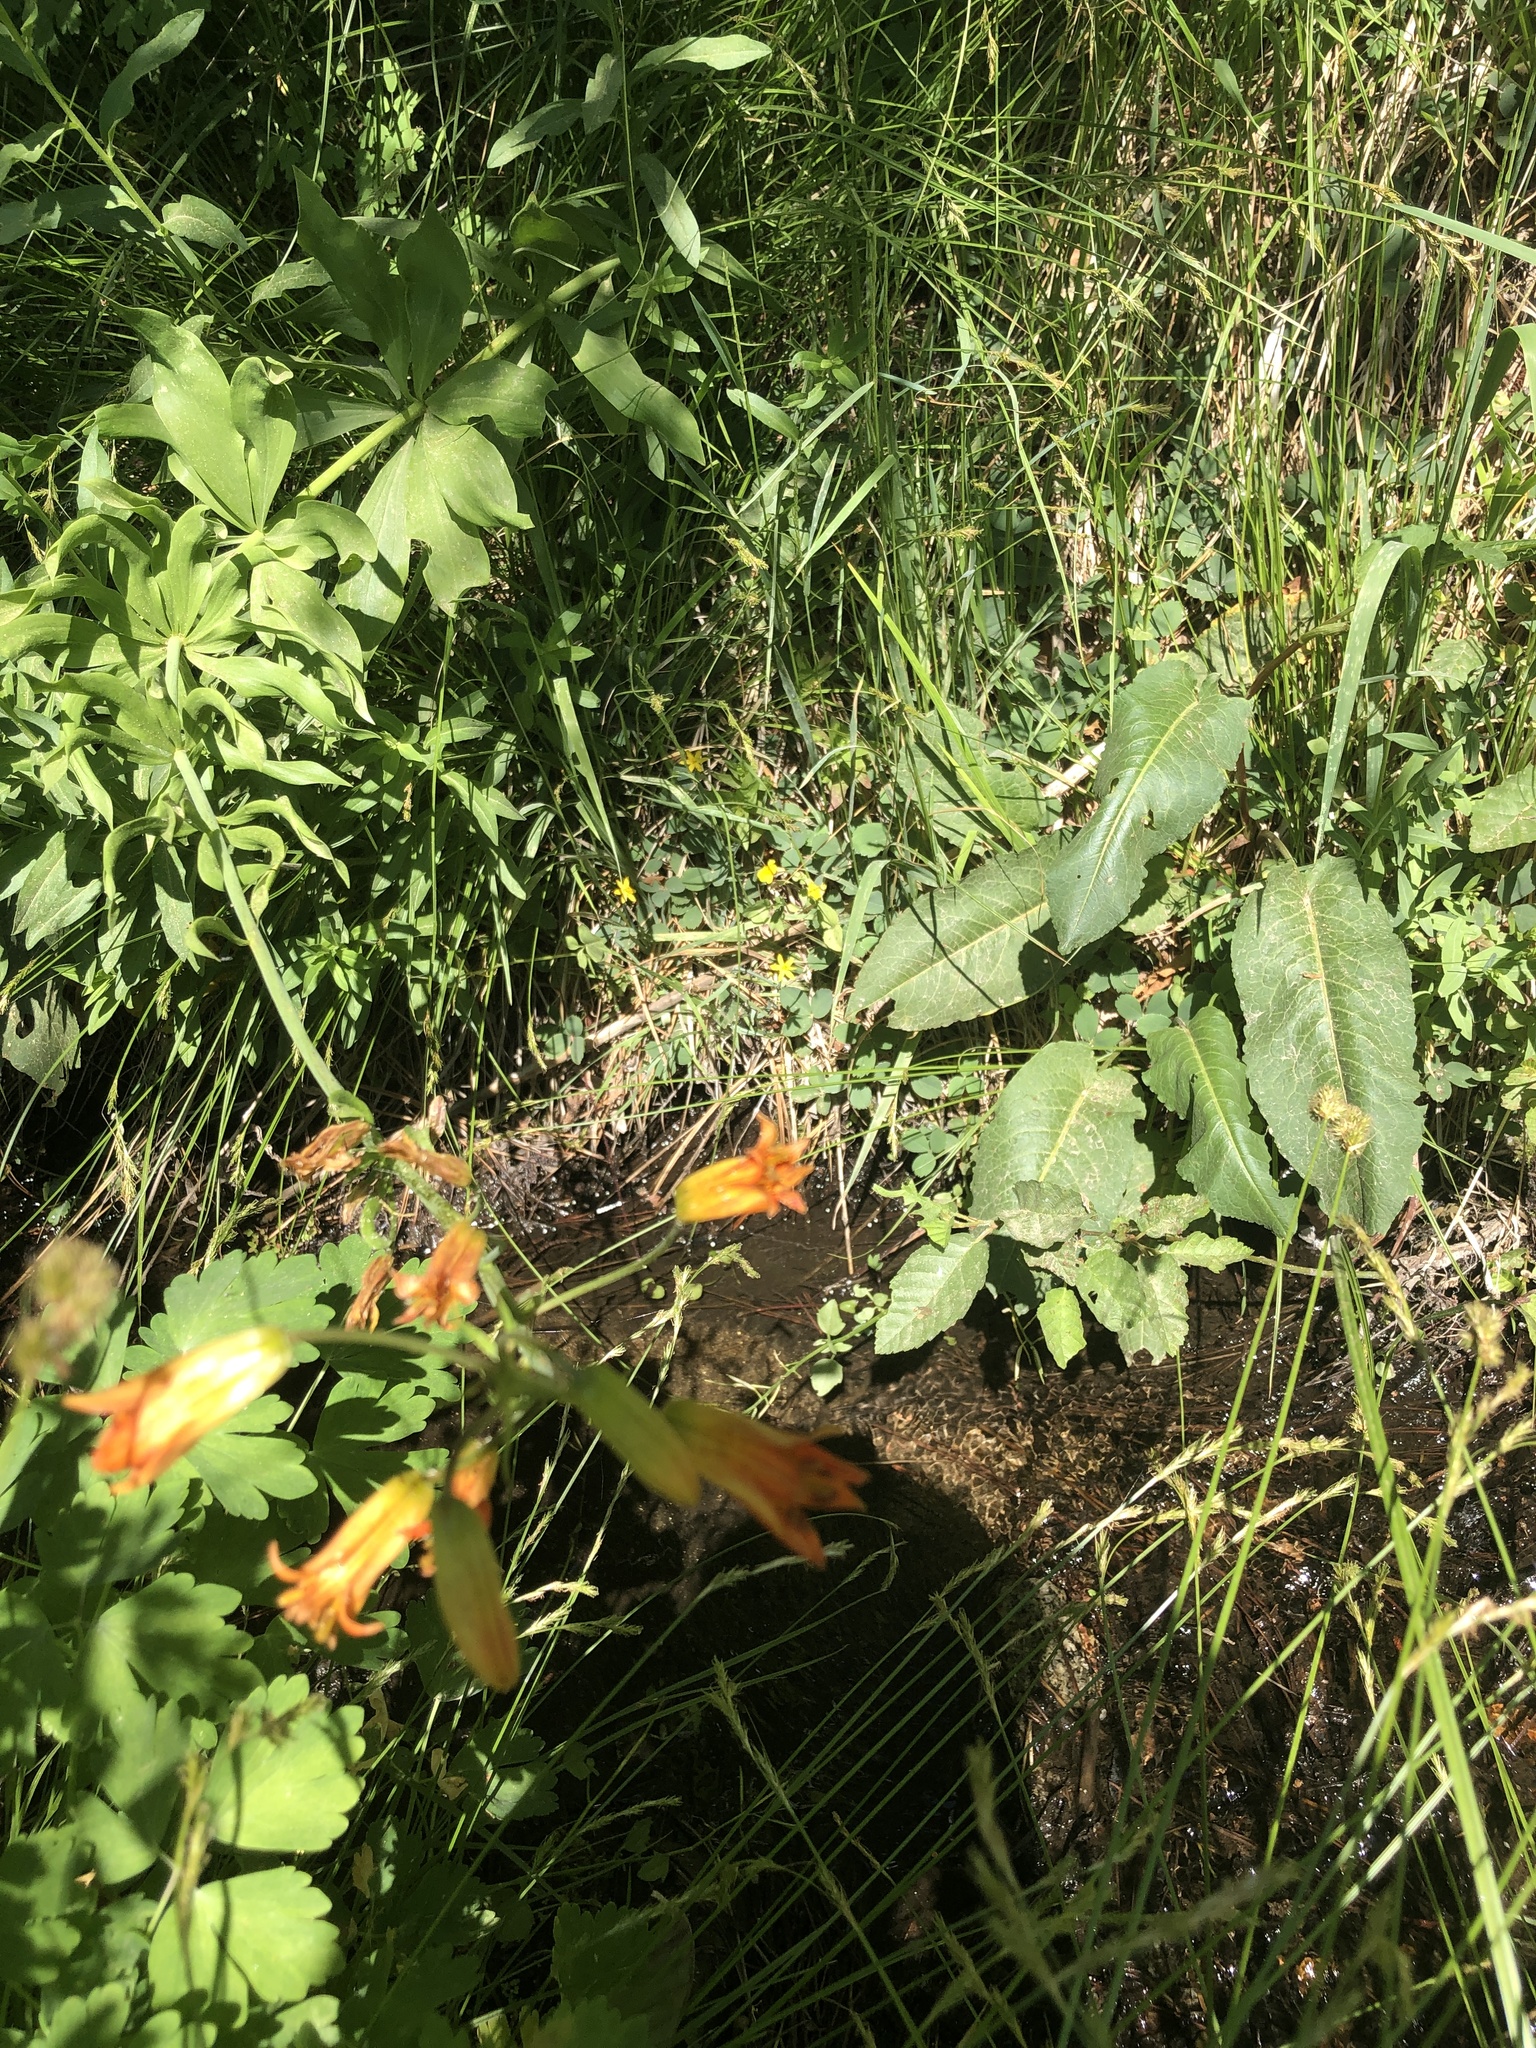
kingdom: Plantae
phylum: Tracheophyta
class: Liliopsida
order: Liliales
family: Liliaceae
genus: Lilium
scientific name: Lilium parvum
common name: Alpine lily
